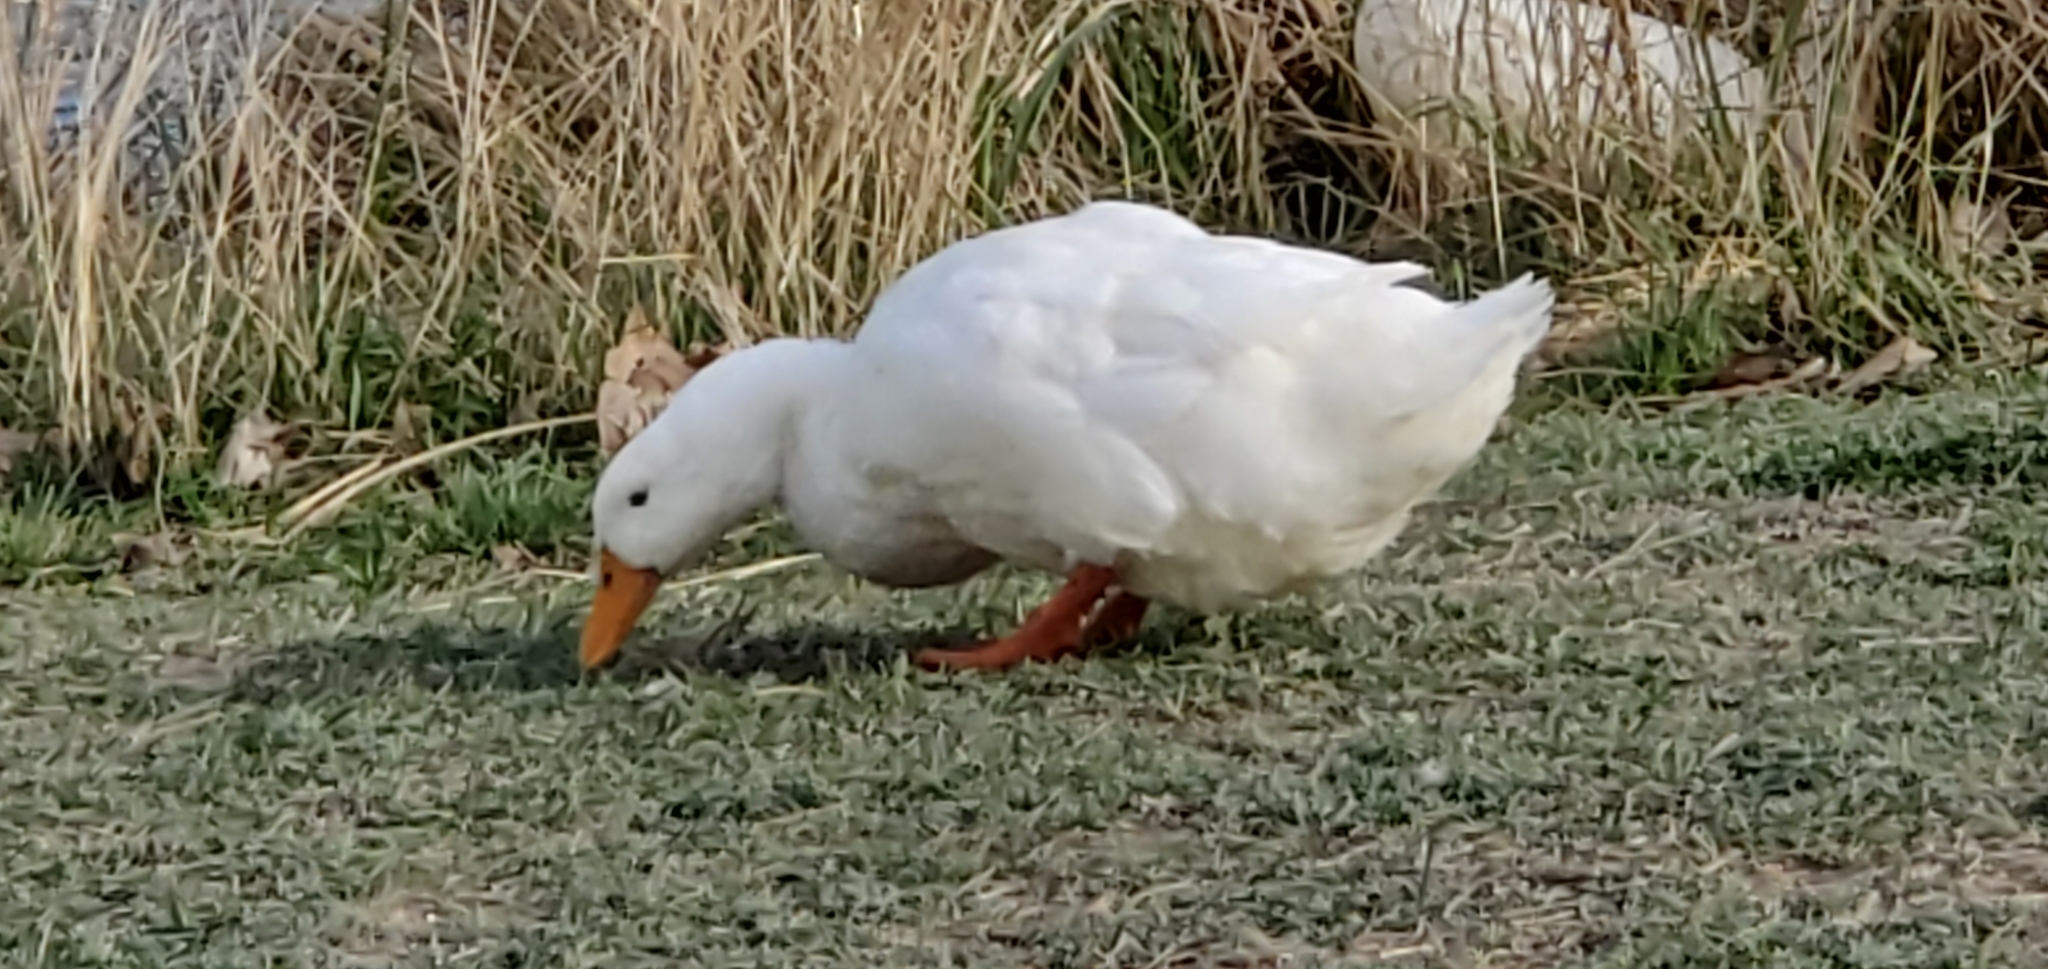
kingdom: Animalia
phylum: Chordata
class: Aves
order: Anseriformes
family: Anatidae
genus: Anas
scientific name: Anas platyrhynchos
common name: Mallard
